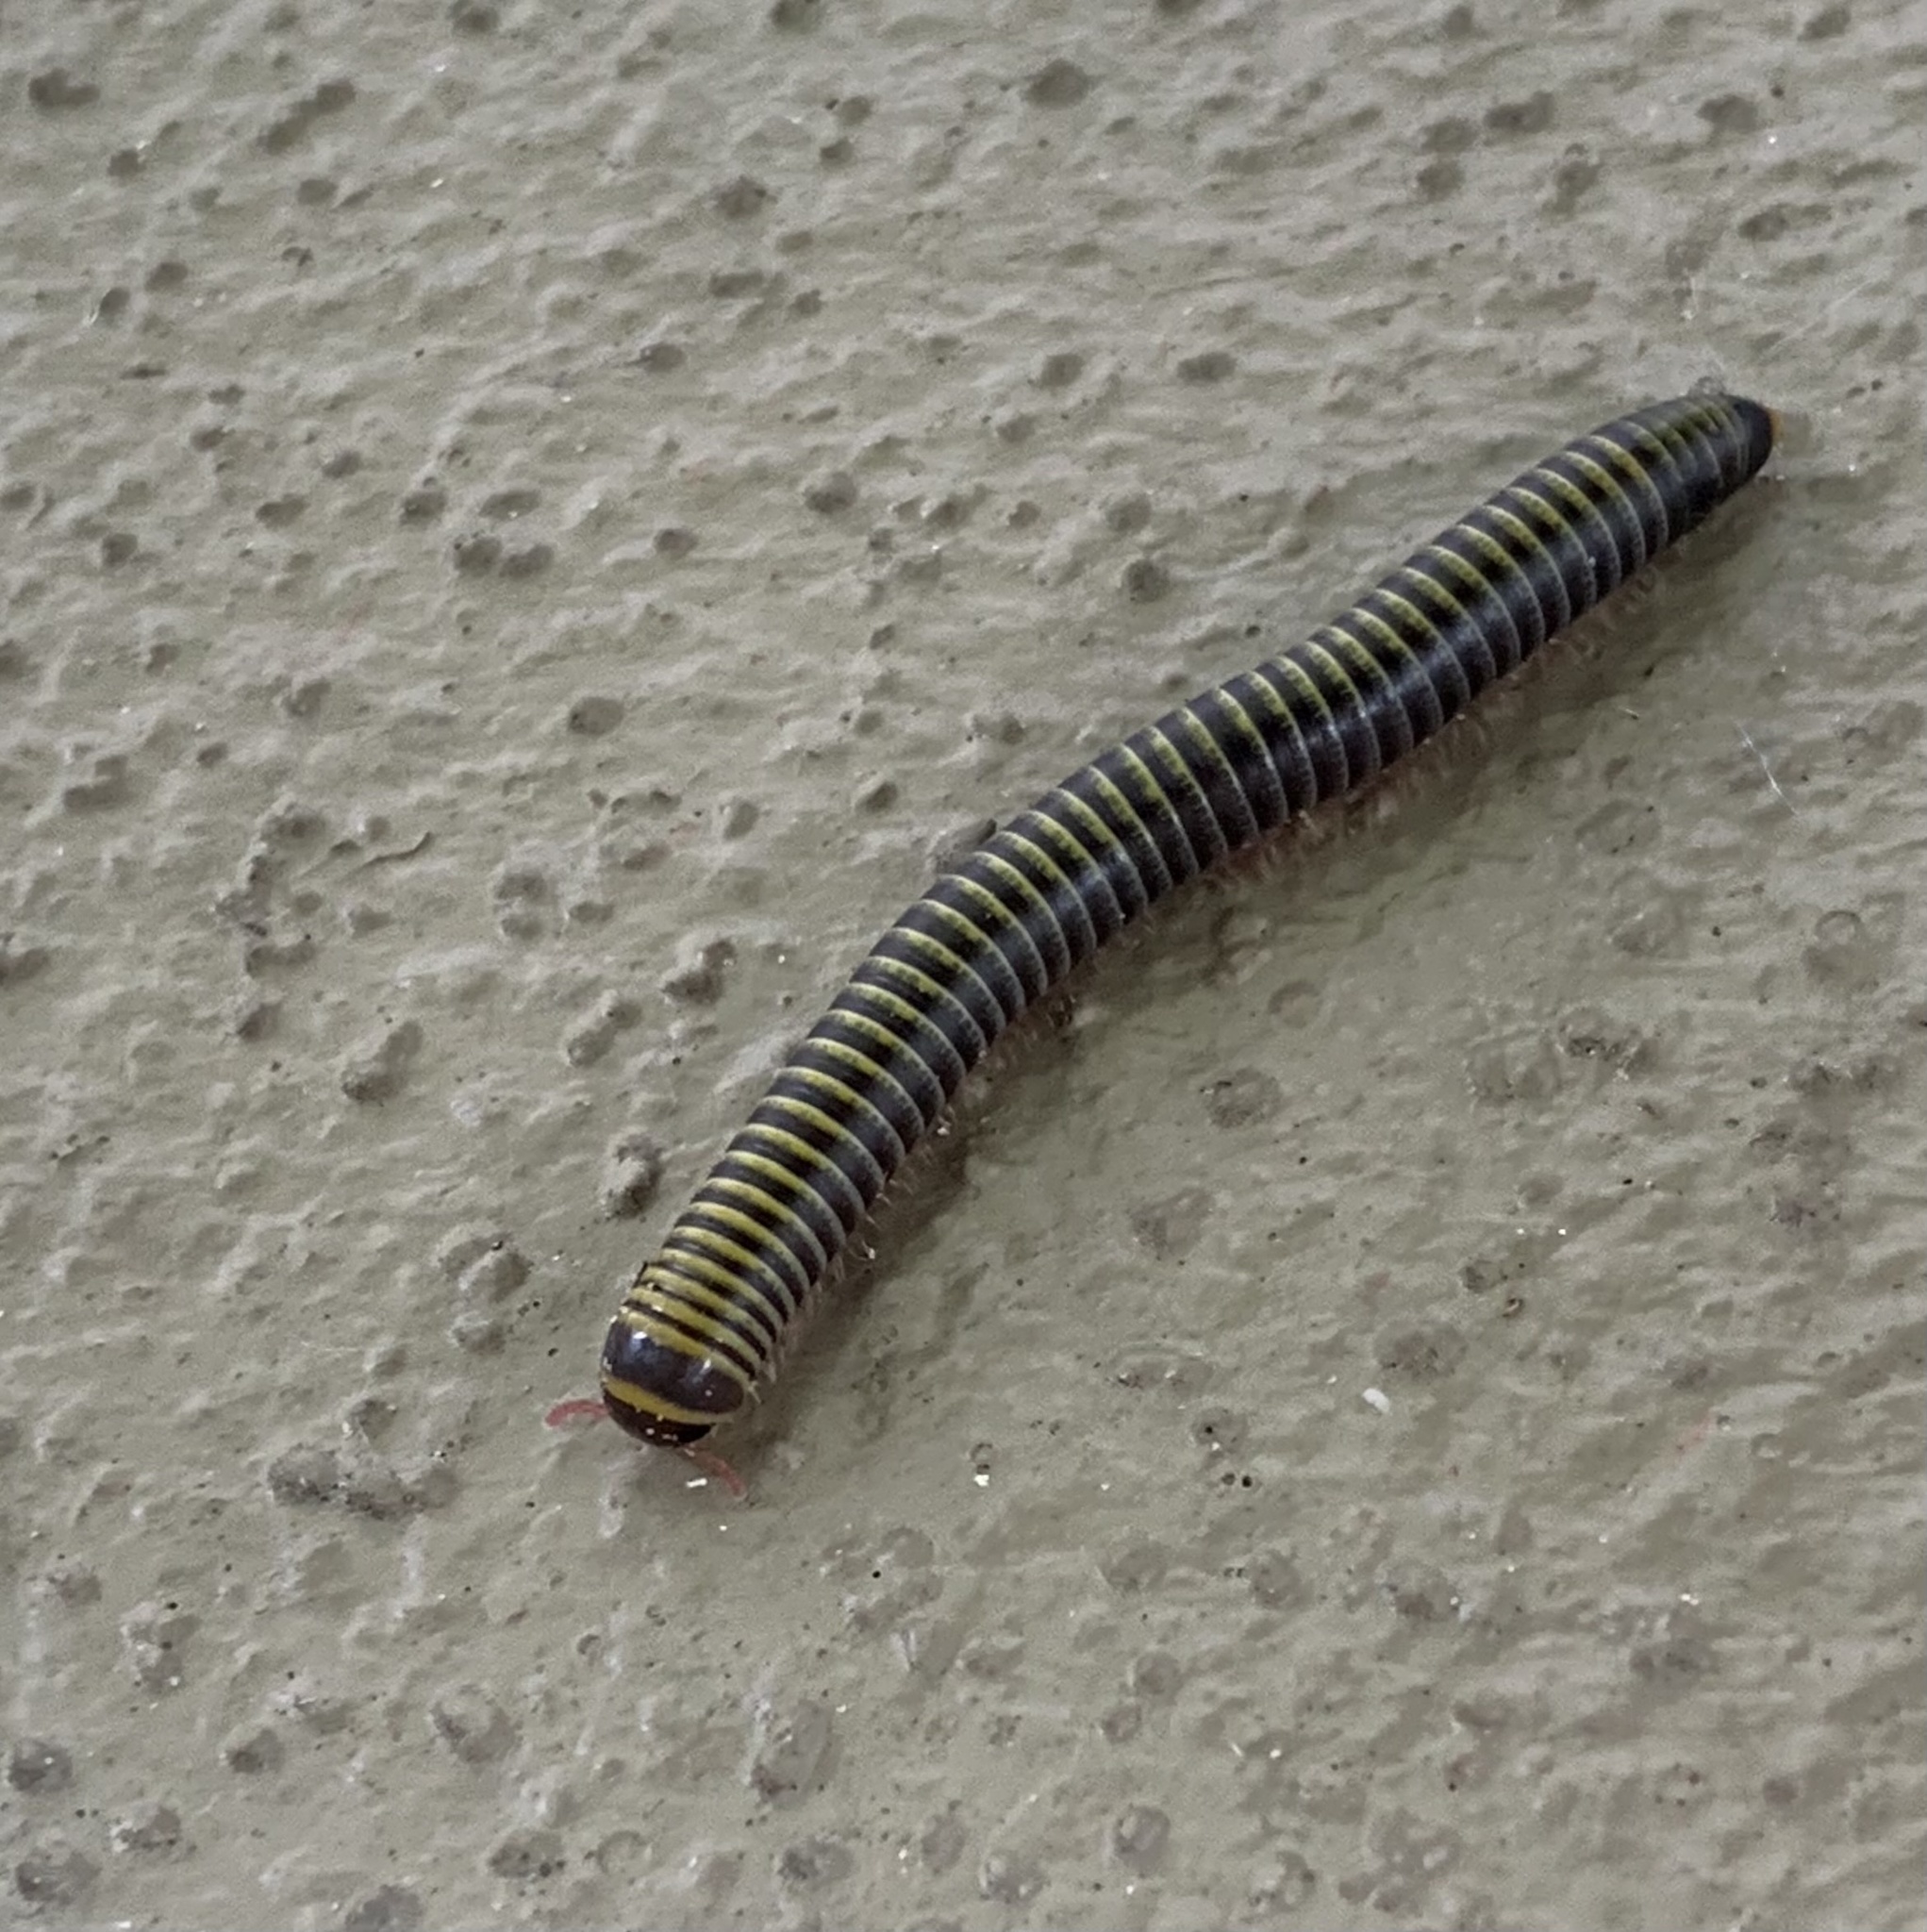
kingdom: Animalia
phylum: Arthropoda
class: Diplopoda
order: Spirobolida
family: Rhinocricidae
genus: Anadenobolus
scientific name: Anadenobolus monilicornis
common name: Caribbean millipede
